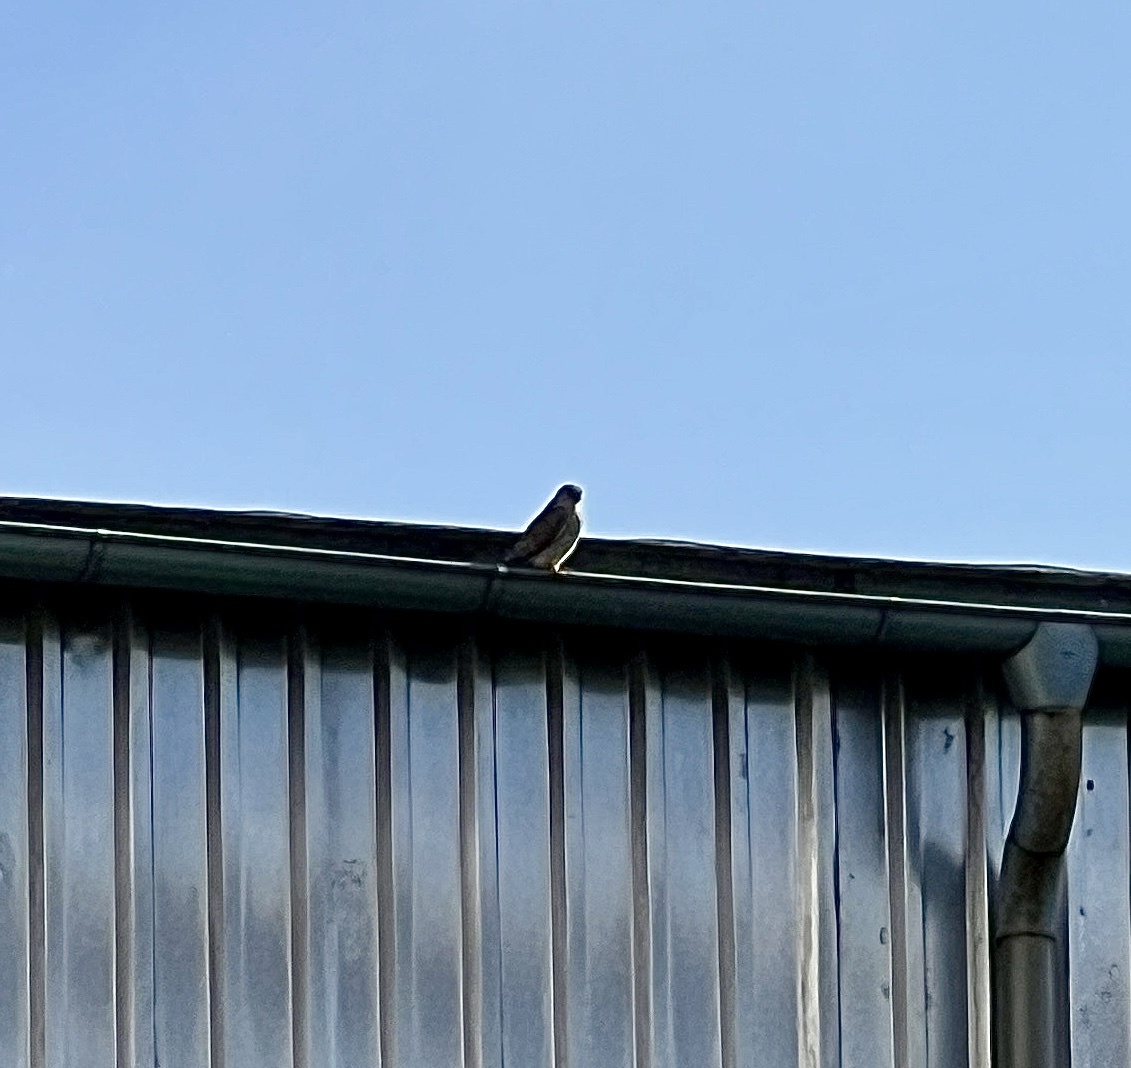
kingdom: Animalia
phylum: Chordata
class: Aves
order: Falconiformes
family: Falconidae
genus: Falco
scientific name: Falco tinnunculus
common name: Common kestrel
